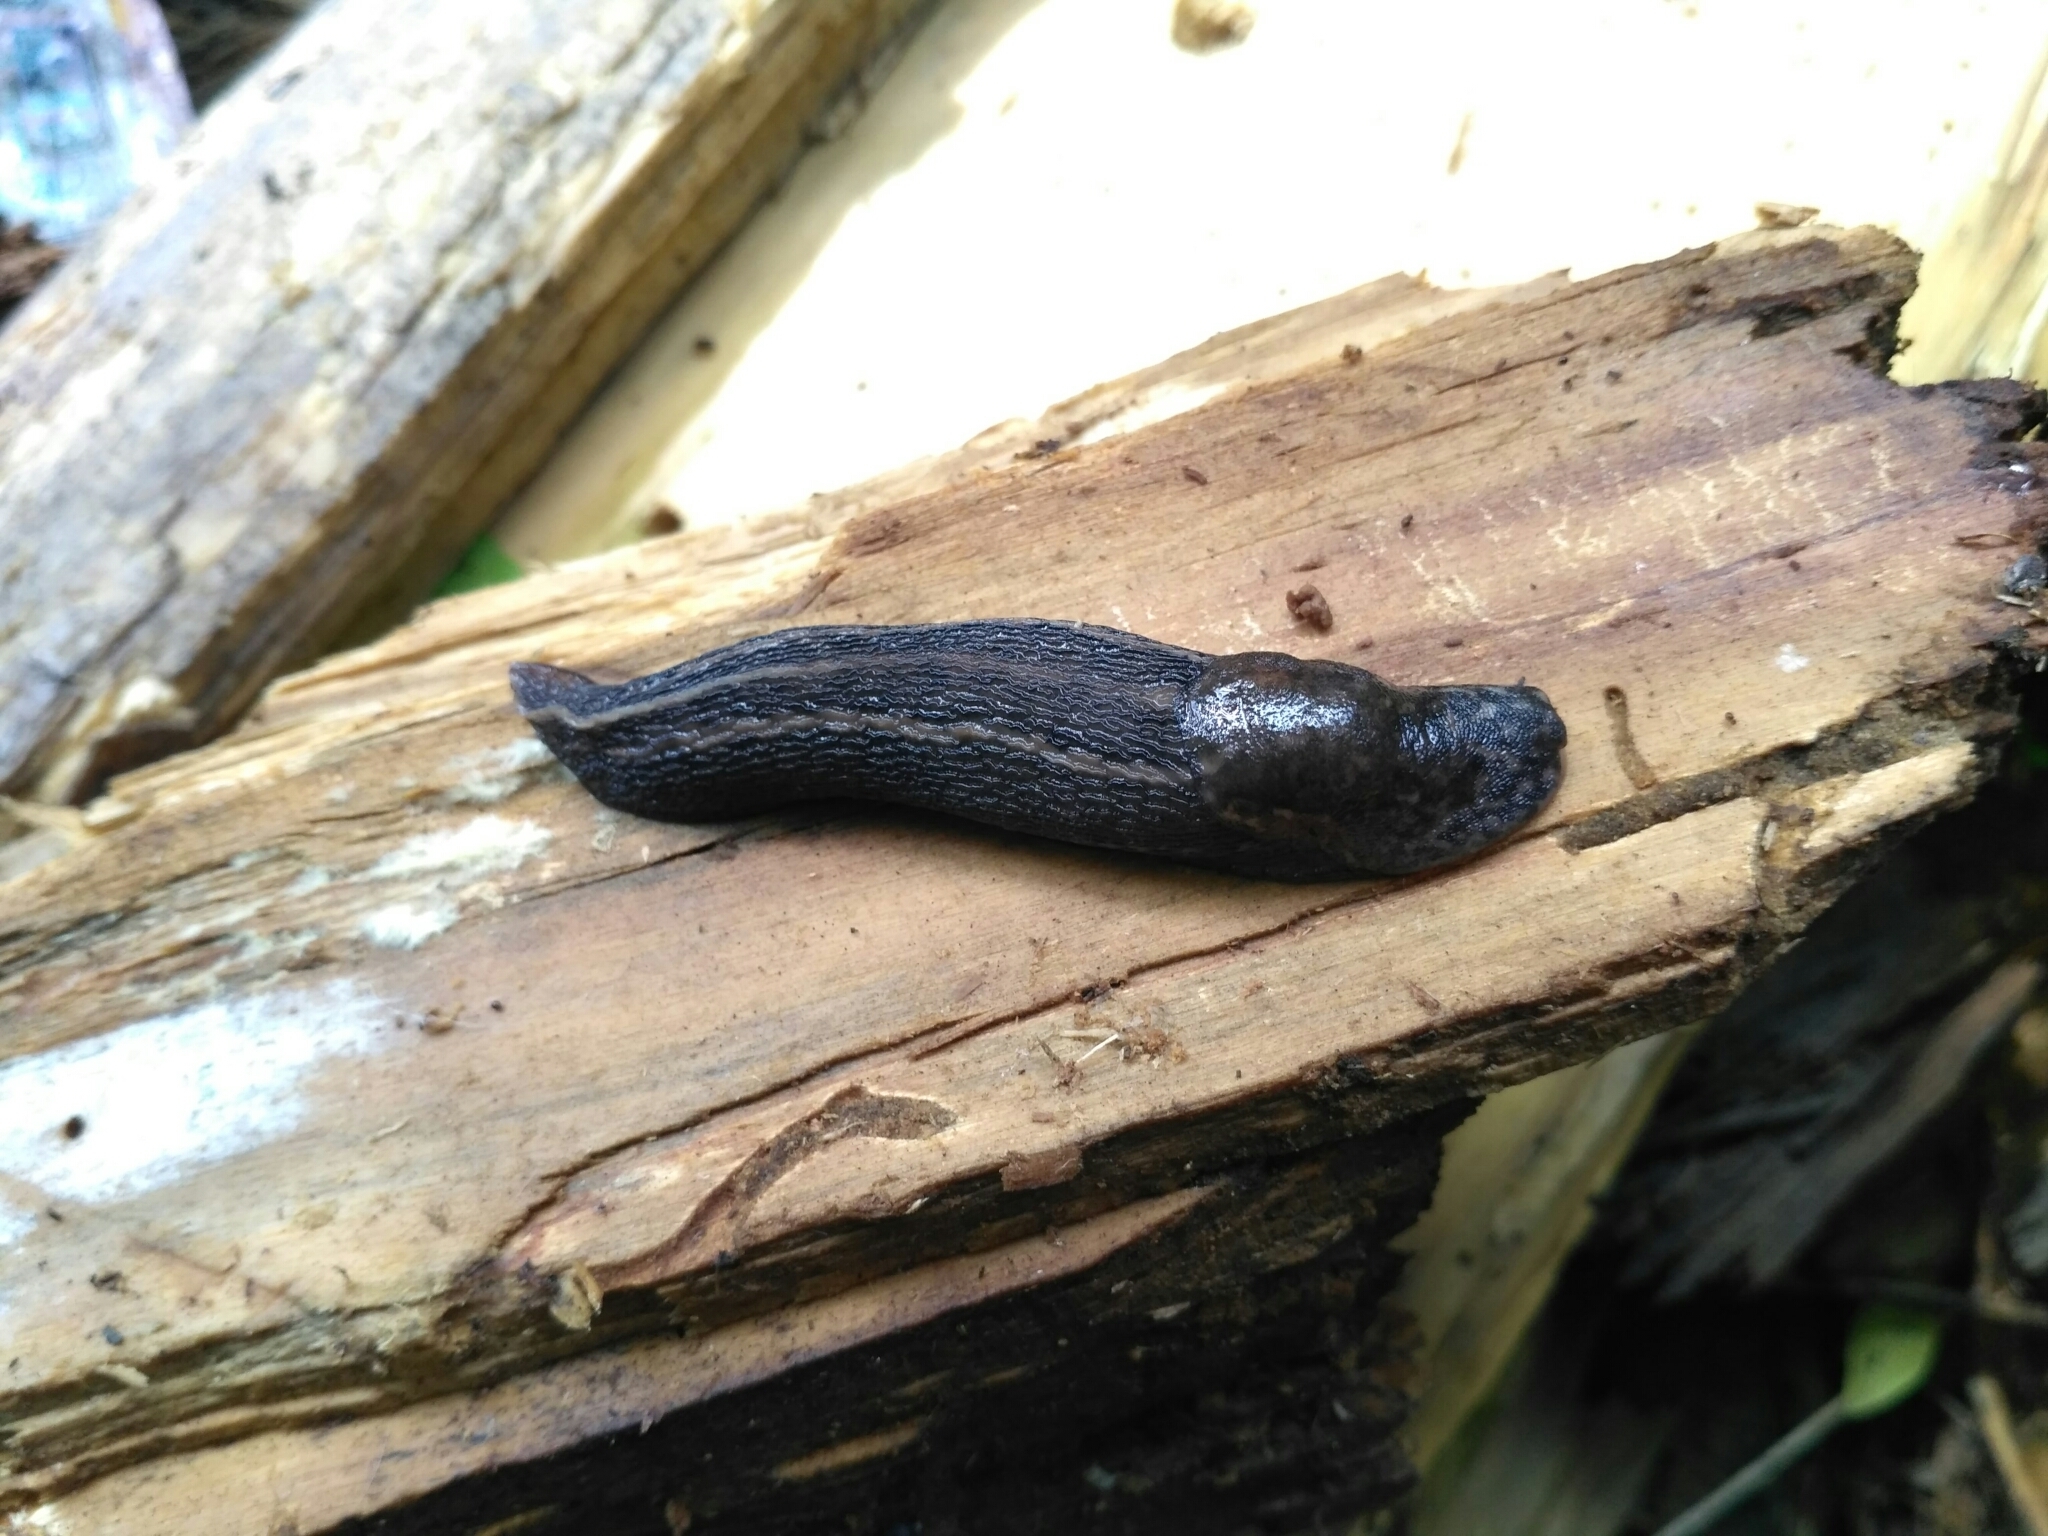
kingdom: Animalia
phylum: Mollusca
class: Gastropoda
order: Stylommatophora
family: Limacidae
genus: Limax
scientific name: Limax maximus
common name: Great grey slug
